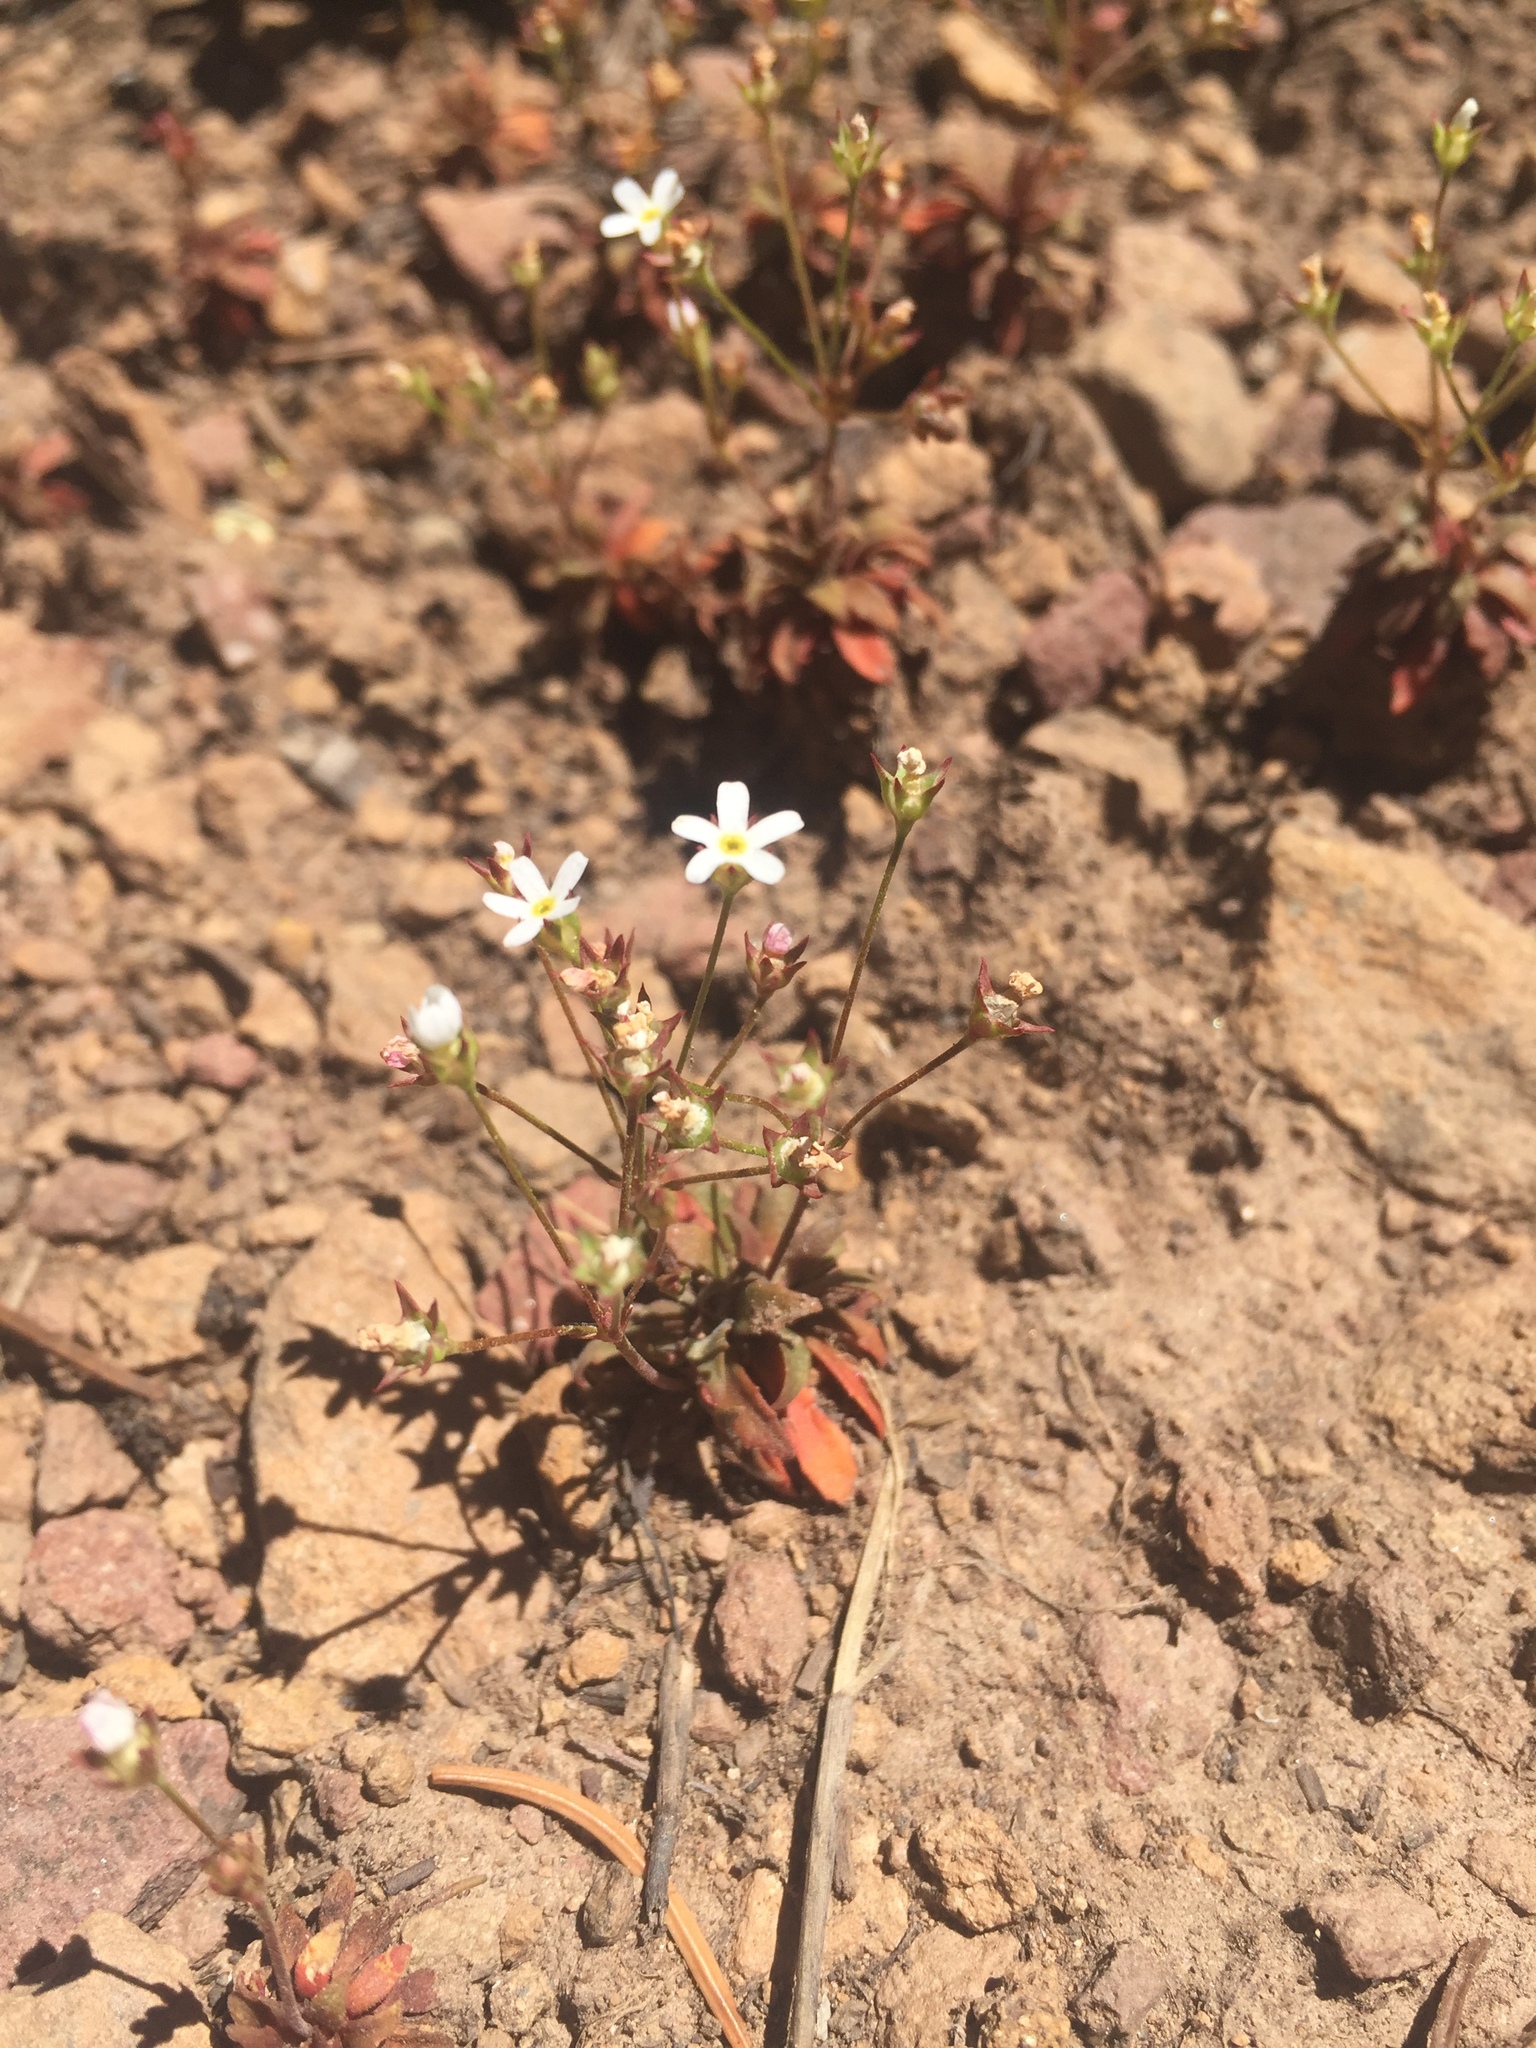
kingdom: Plantae
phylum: Tracheophyta
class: Magnoliopsida
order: Ericales
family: Primulaceae
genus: Androsace
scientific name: Androsace septentrionalis
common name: Hairy northern fairy-candelabra
